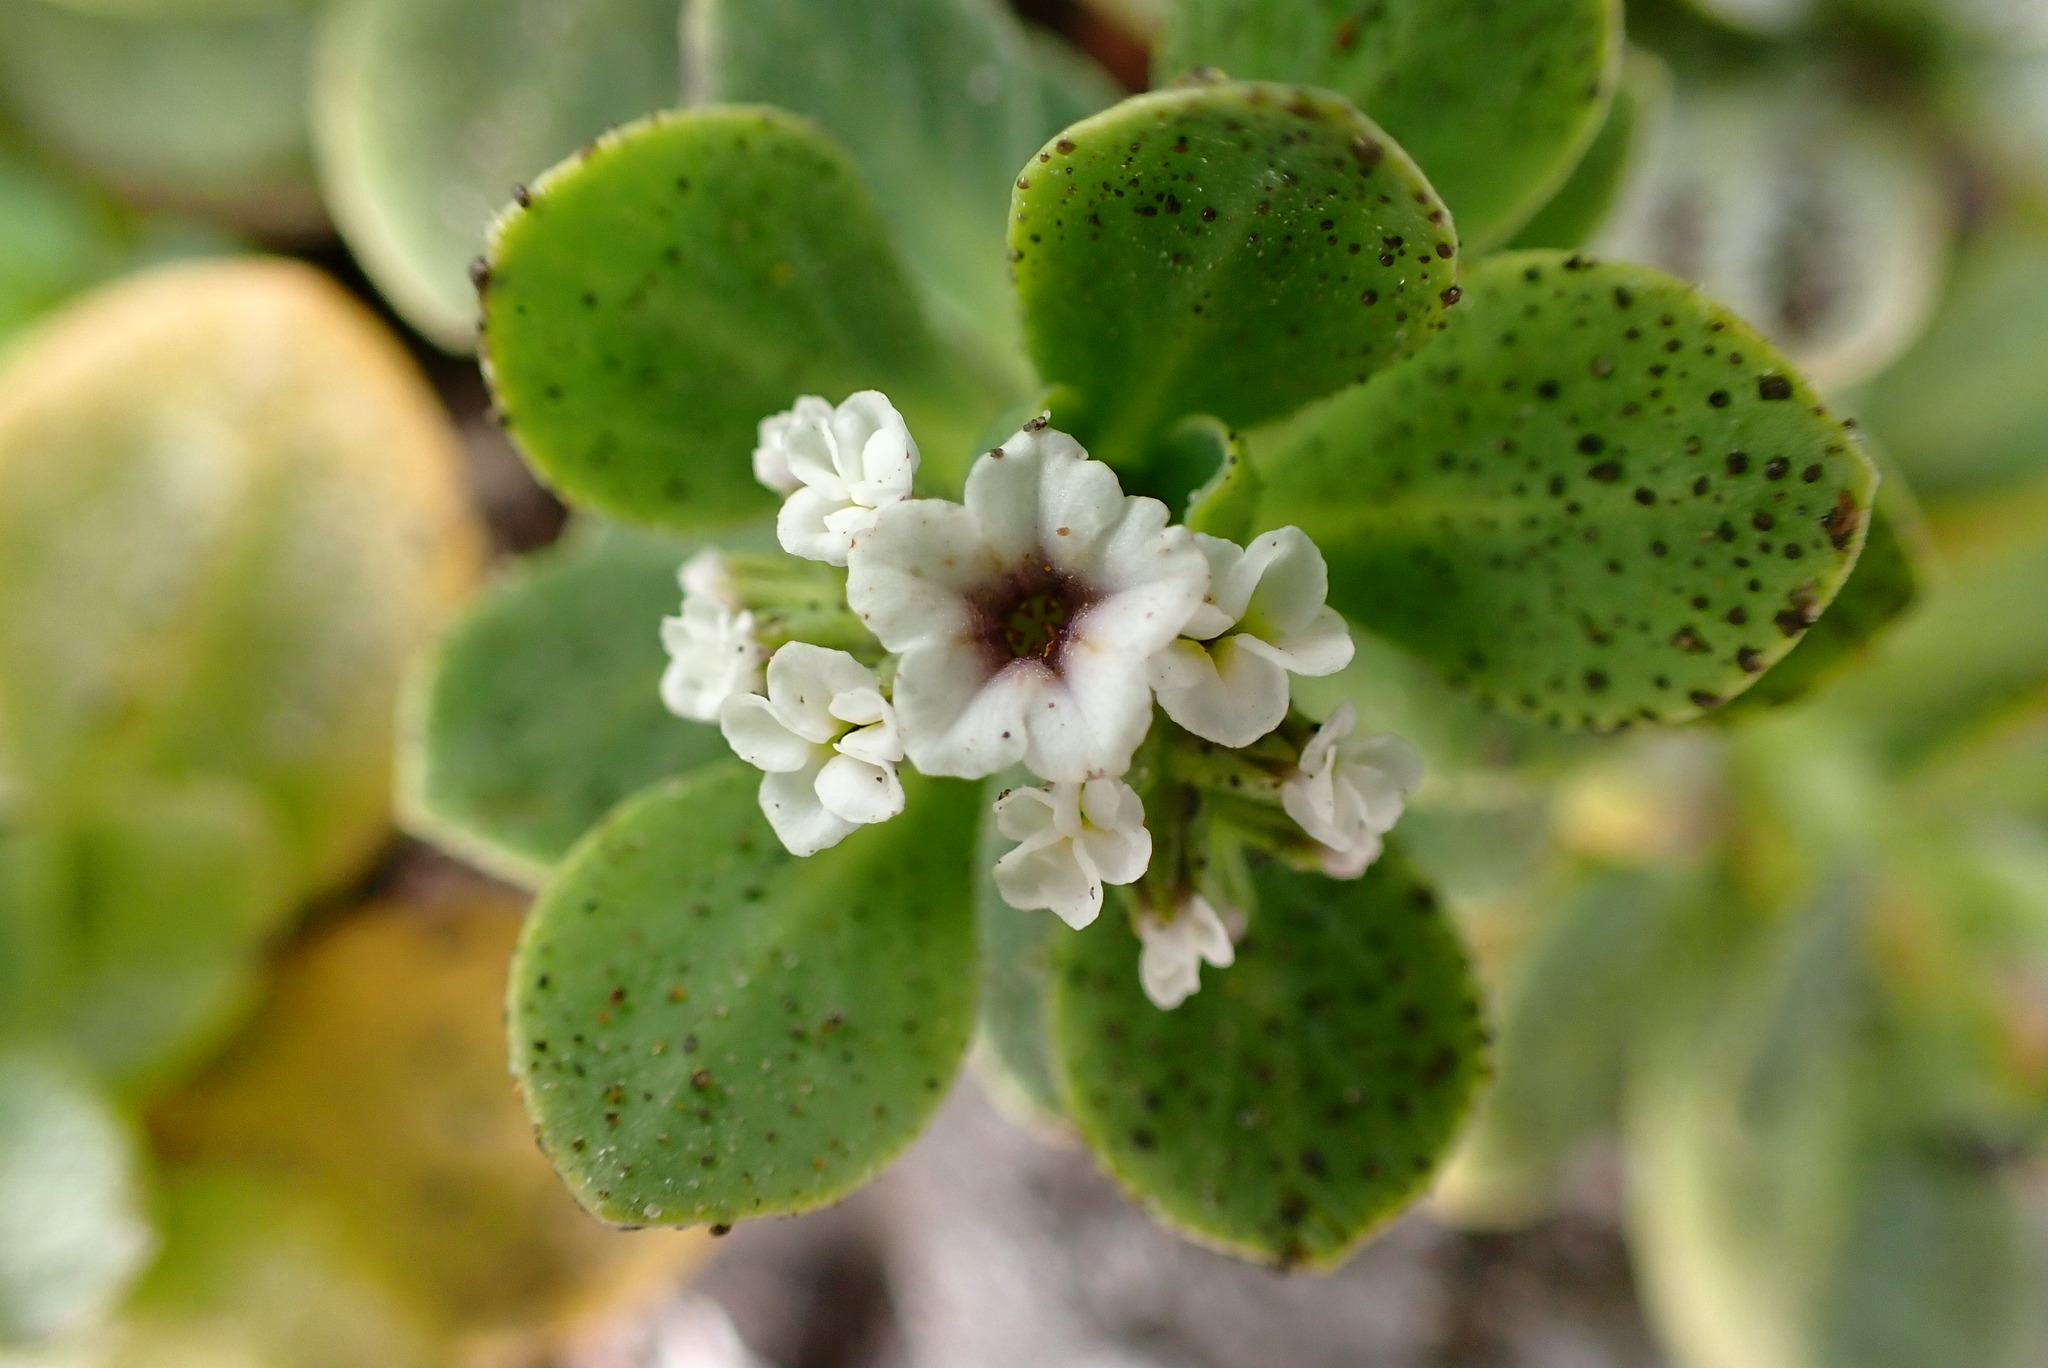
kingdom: Plantae
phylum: Tracheophyta
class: Magnoliopsida
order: Boraginales
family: Heliotropiaceae
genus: Heliotropium
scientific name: Heliotropium curassavicum
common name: Seaside heliotrope
